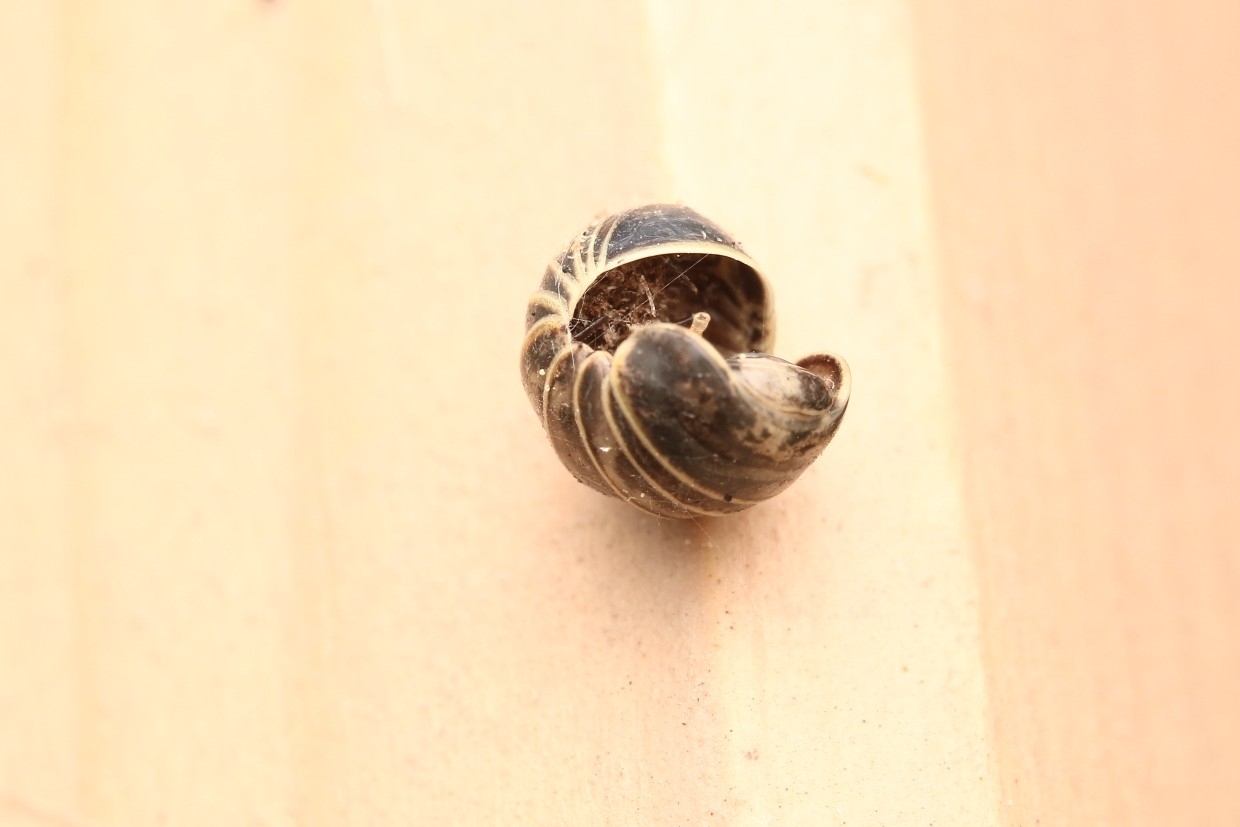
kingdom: Animalia
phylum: Arthropoda
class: Diplopoda
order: Glomerida
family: Glomeridae
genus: Glomeris
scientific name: Glomeris marginata
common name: Bordered pill millipede
